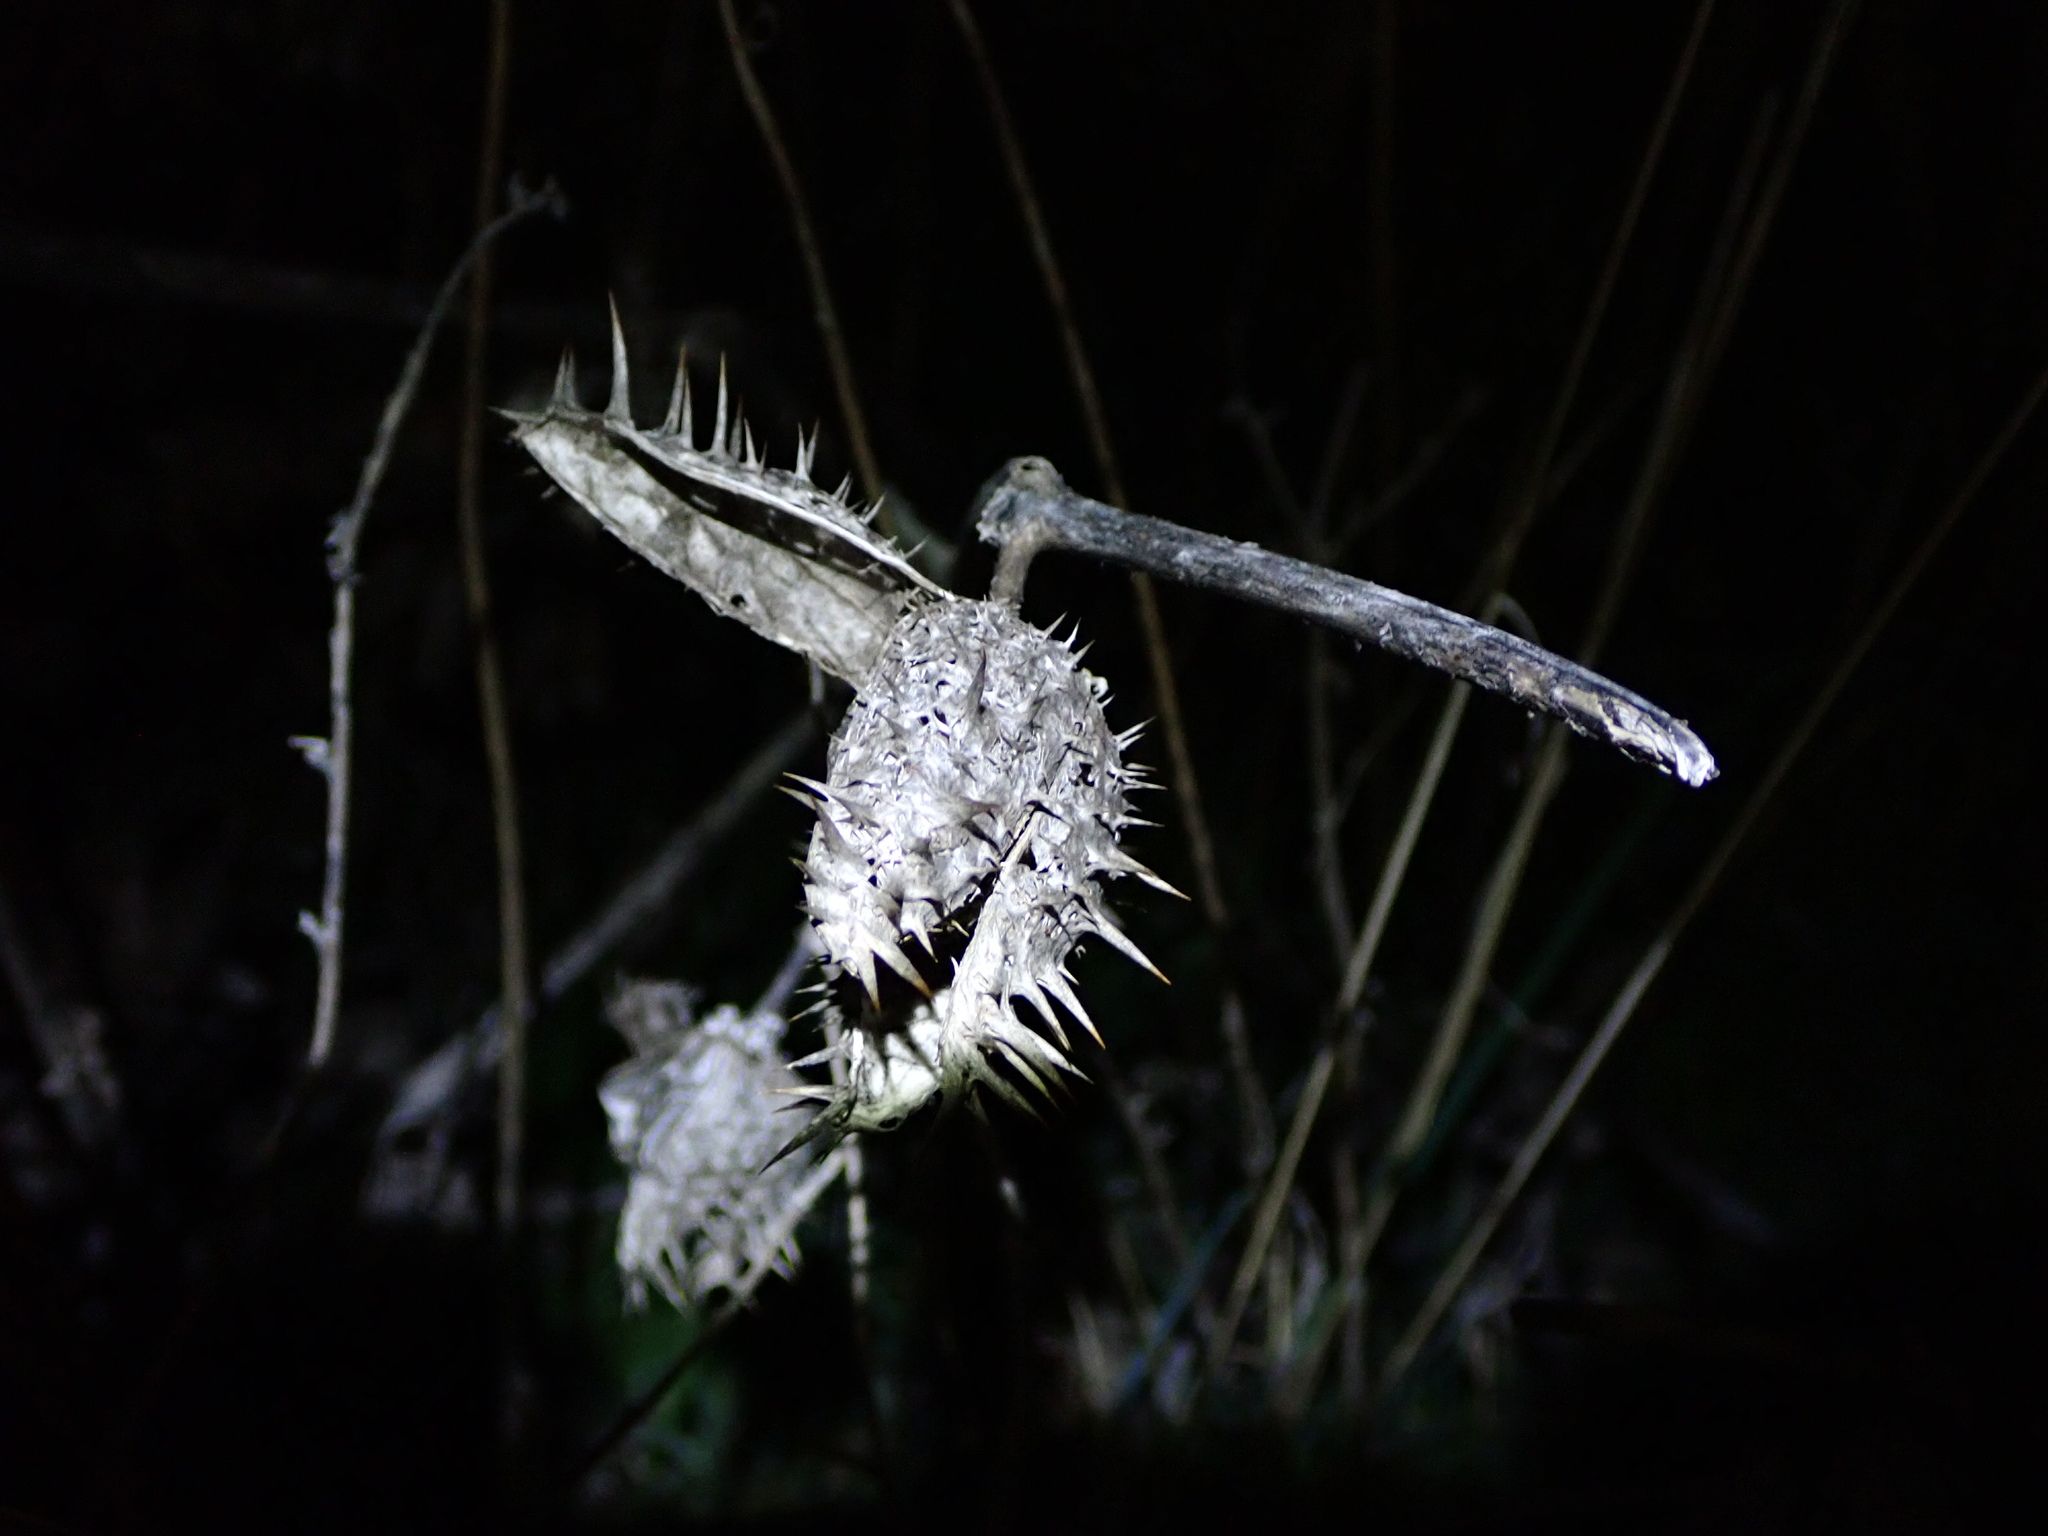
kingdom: Plantae
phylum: Tracheophyta
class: Magnoliopsida
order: Solanales
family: Solanaceae
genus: Datura
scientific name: Datura stramonium
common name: Thorn-apple
